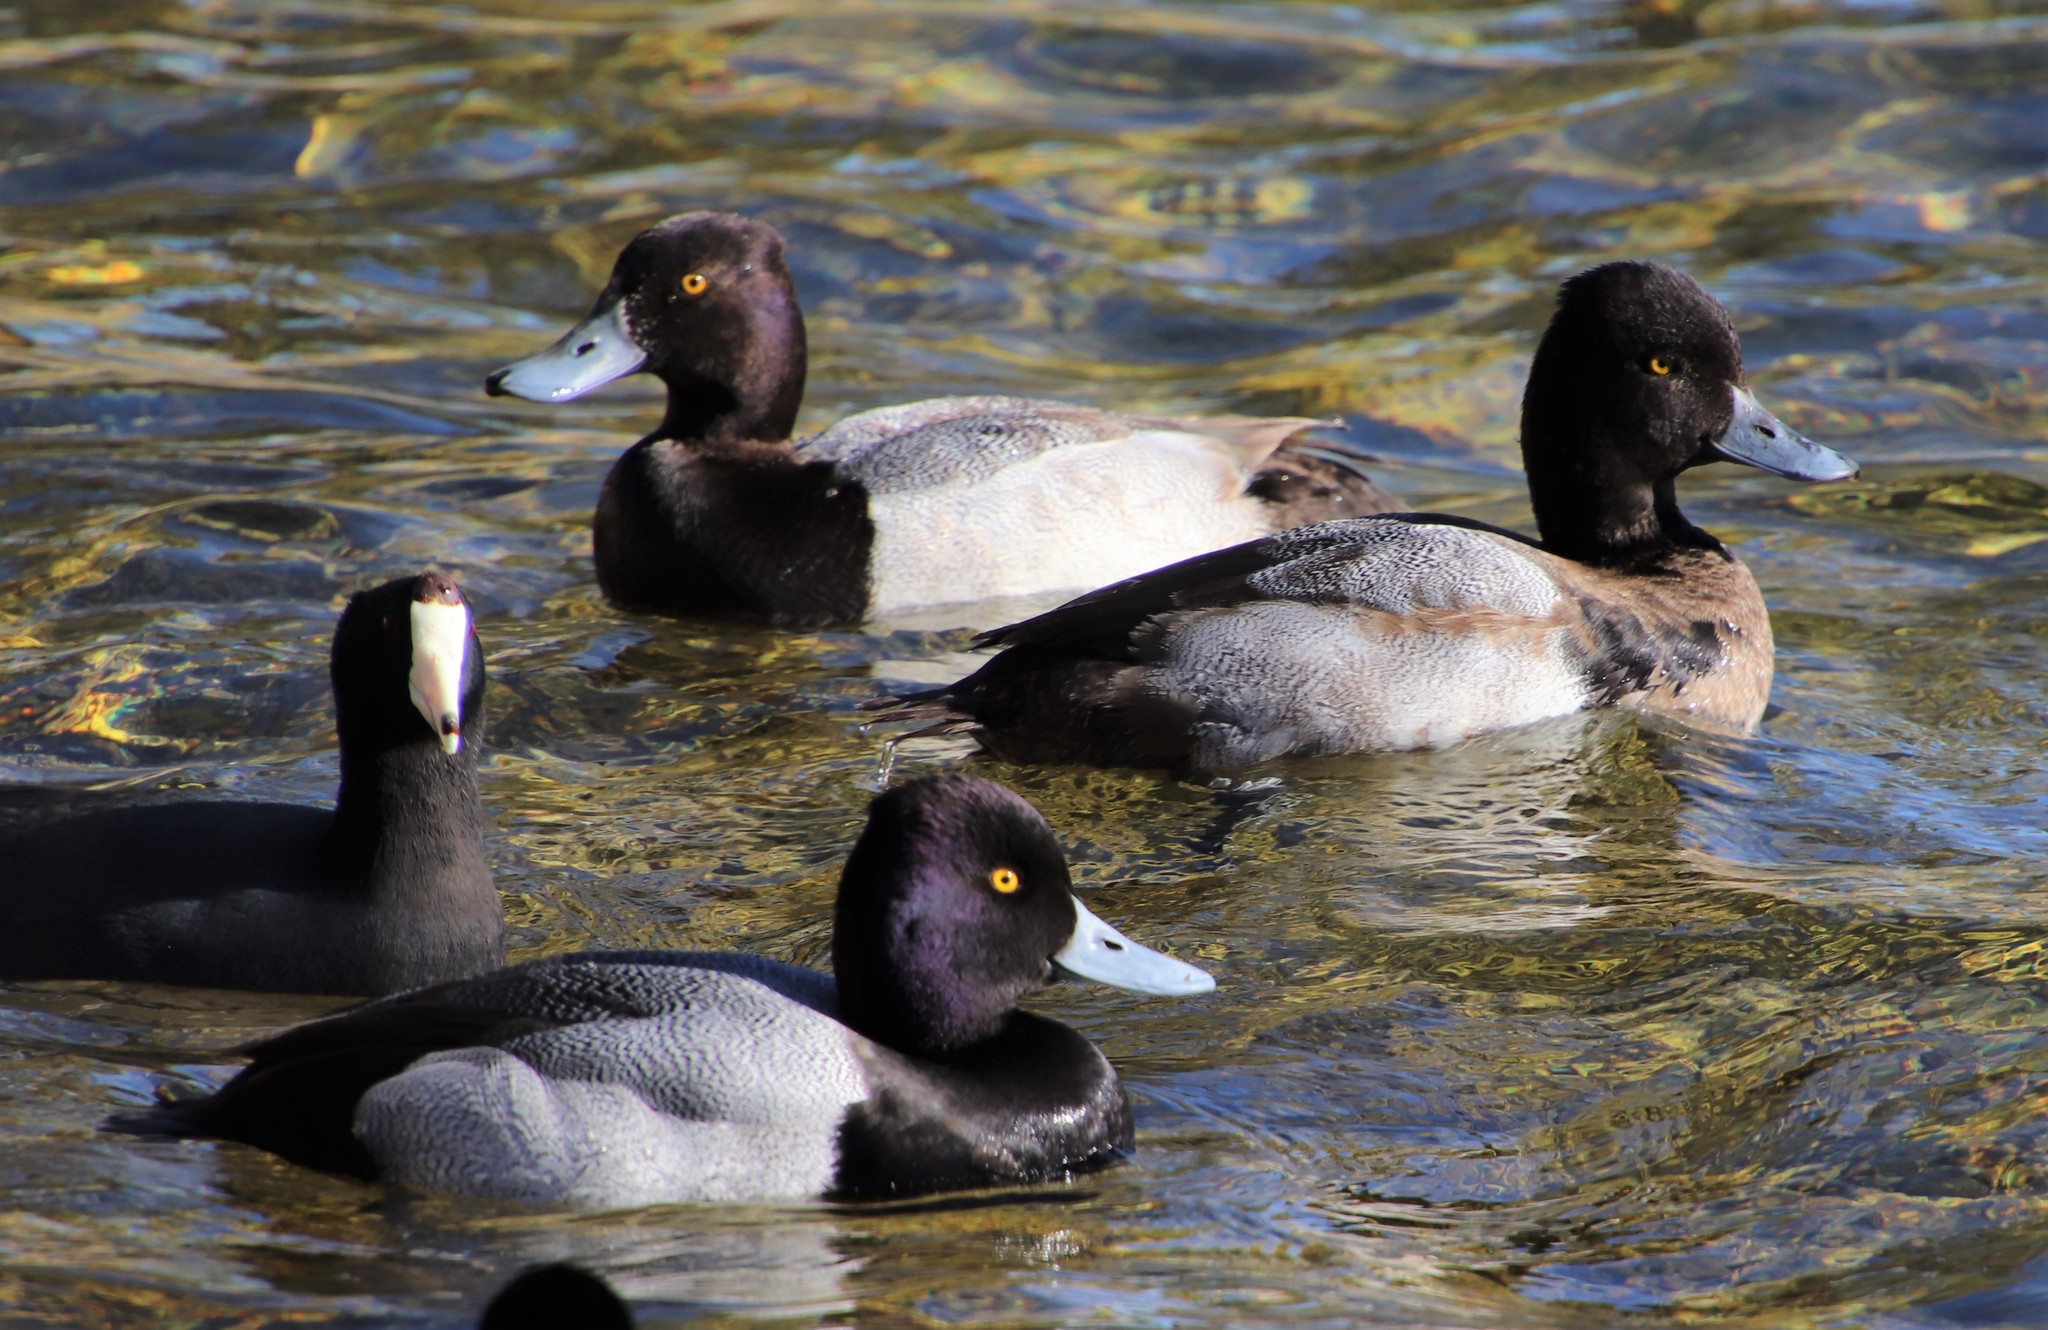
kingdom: Animalia
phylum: Chordata
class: Aves
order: Anseriformes
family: Anatidae
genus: Aythya
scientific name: Aythya affinis
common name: Lesser scaup
